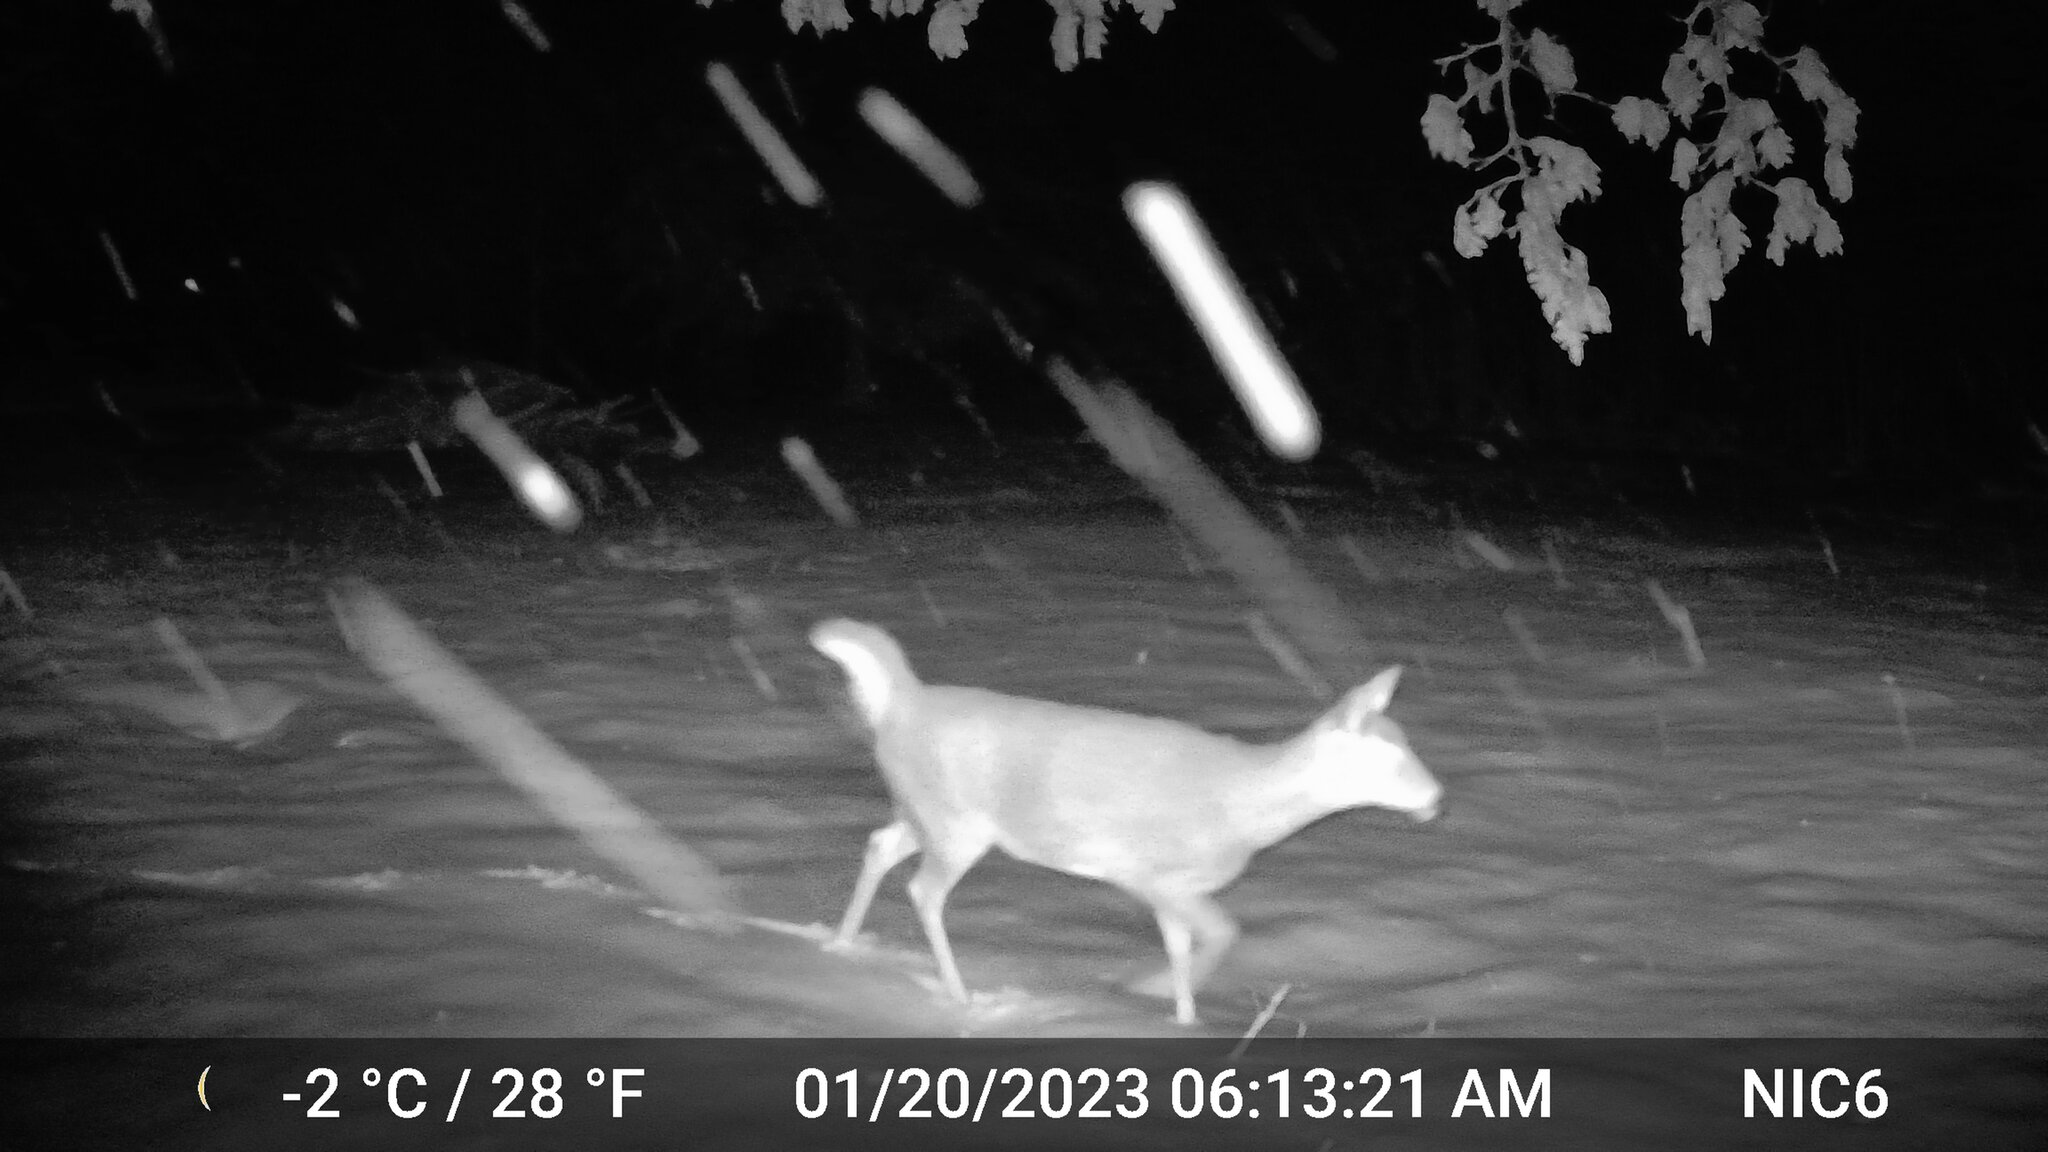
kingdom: Animalia
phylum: Chordata
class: Mammalia
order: Artiodactyla
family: Cervidae
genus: Odocoileus
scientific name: Odocoileus virginianus
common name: White-tailed deer
